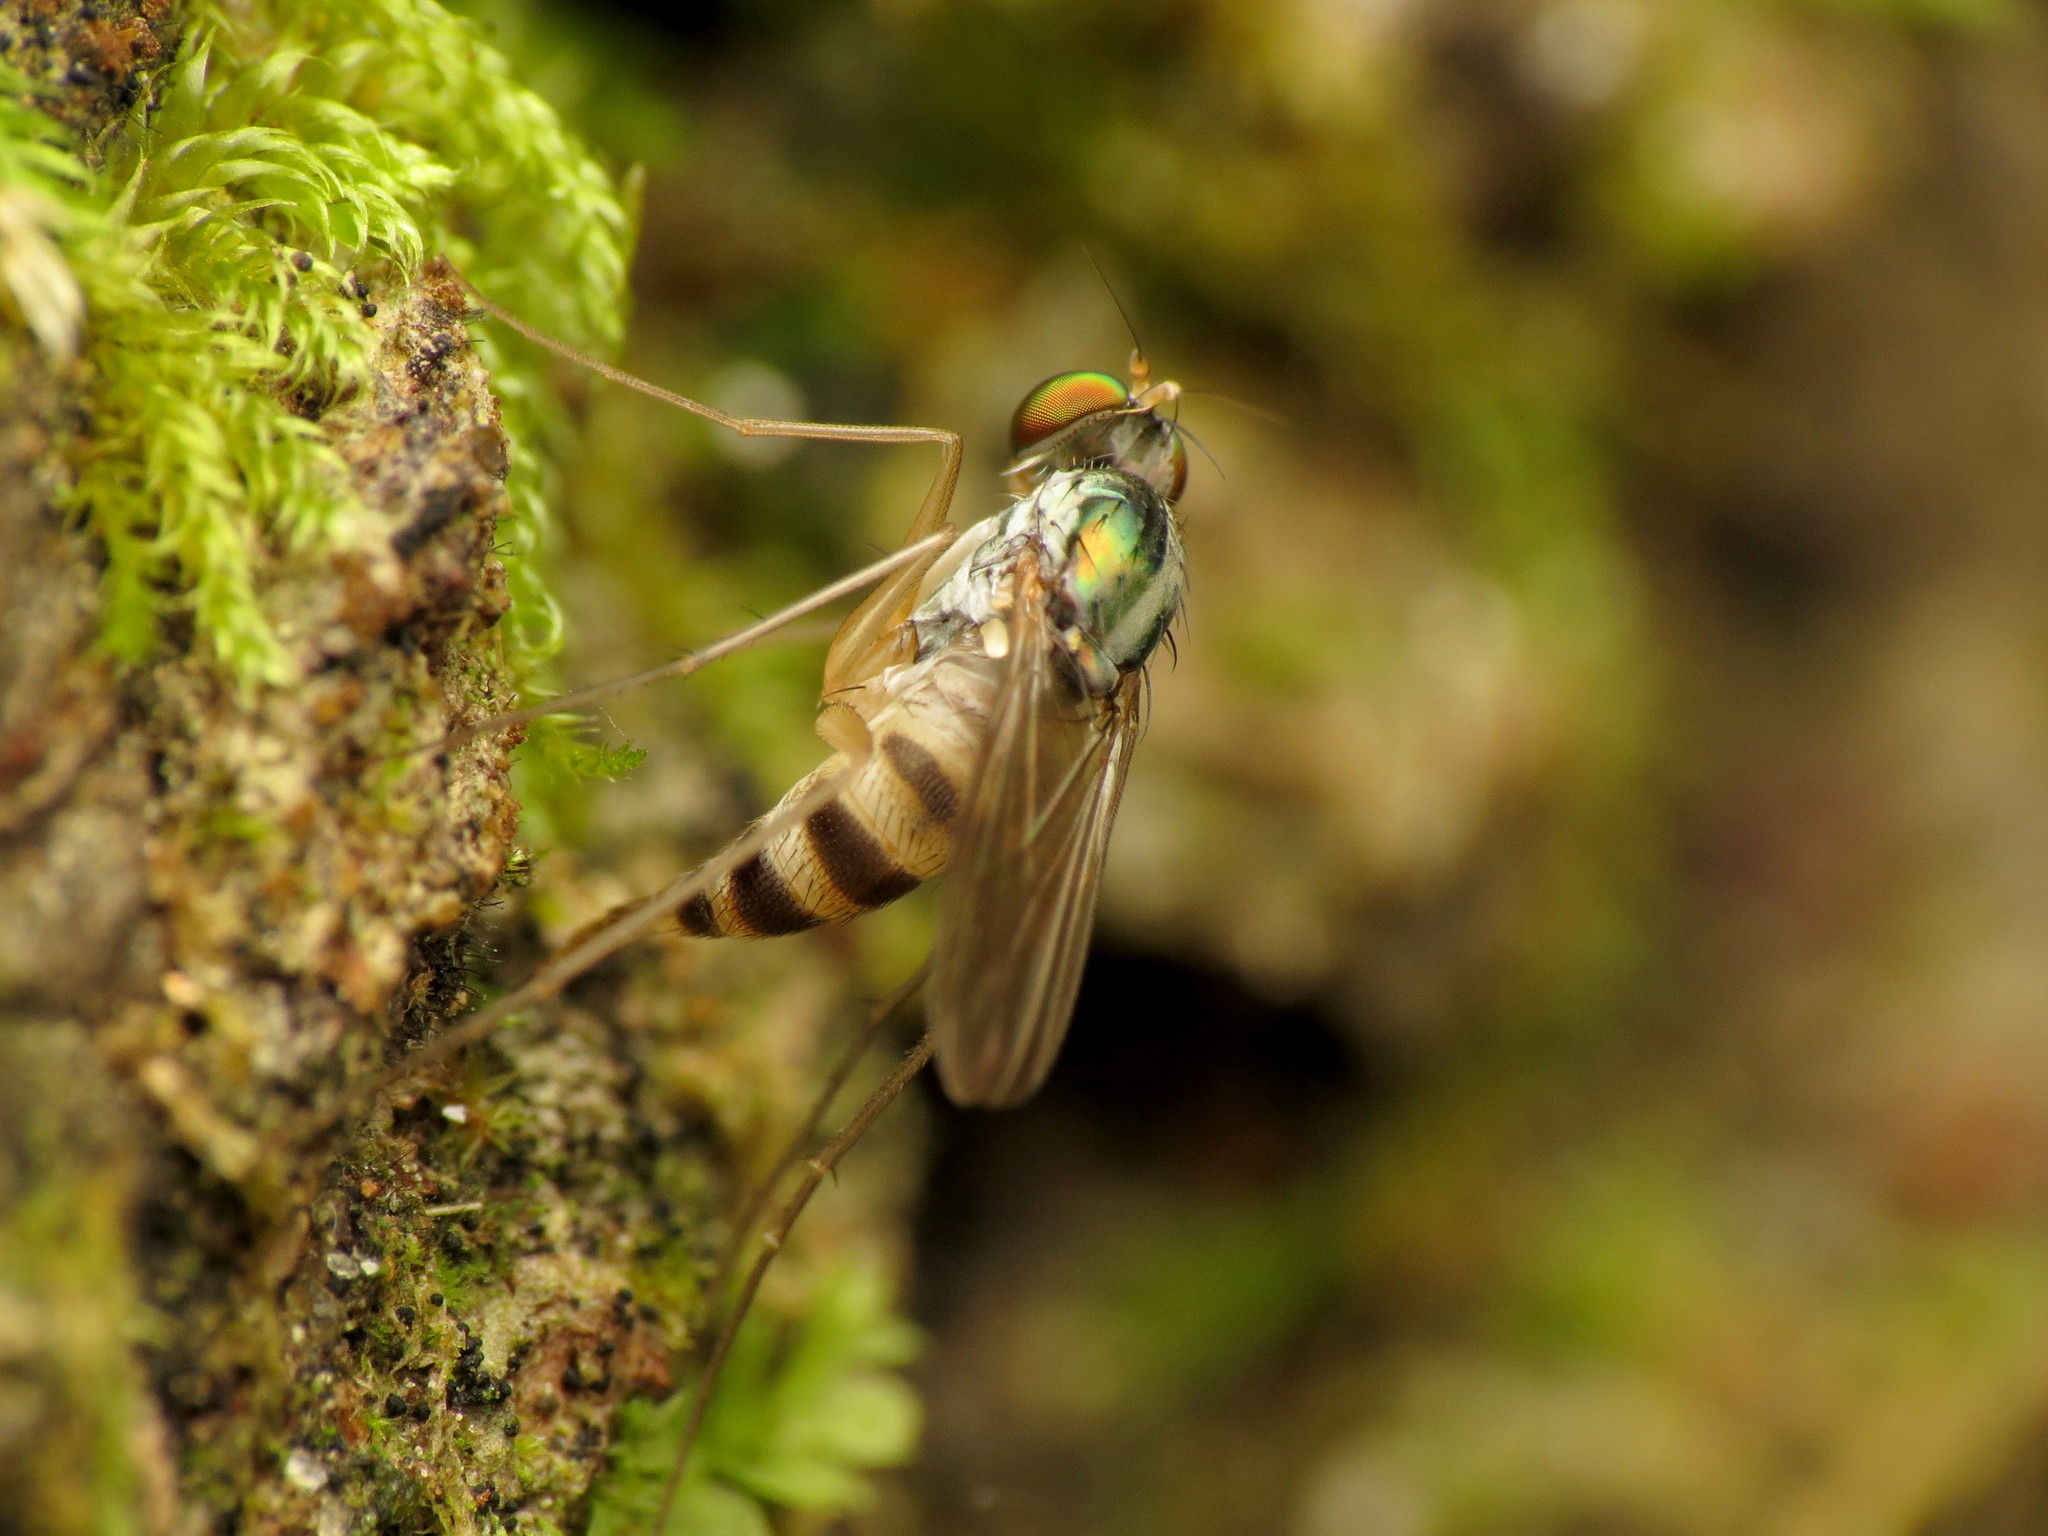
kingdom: Animalia
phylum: Arthropoda
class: Insecta
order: Diptera
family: Dolichopodidae
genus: Neurigona
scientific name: Neurigona deformis
